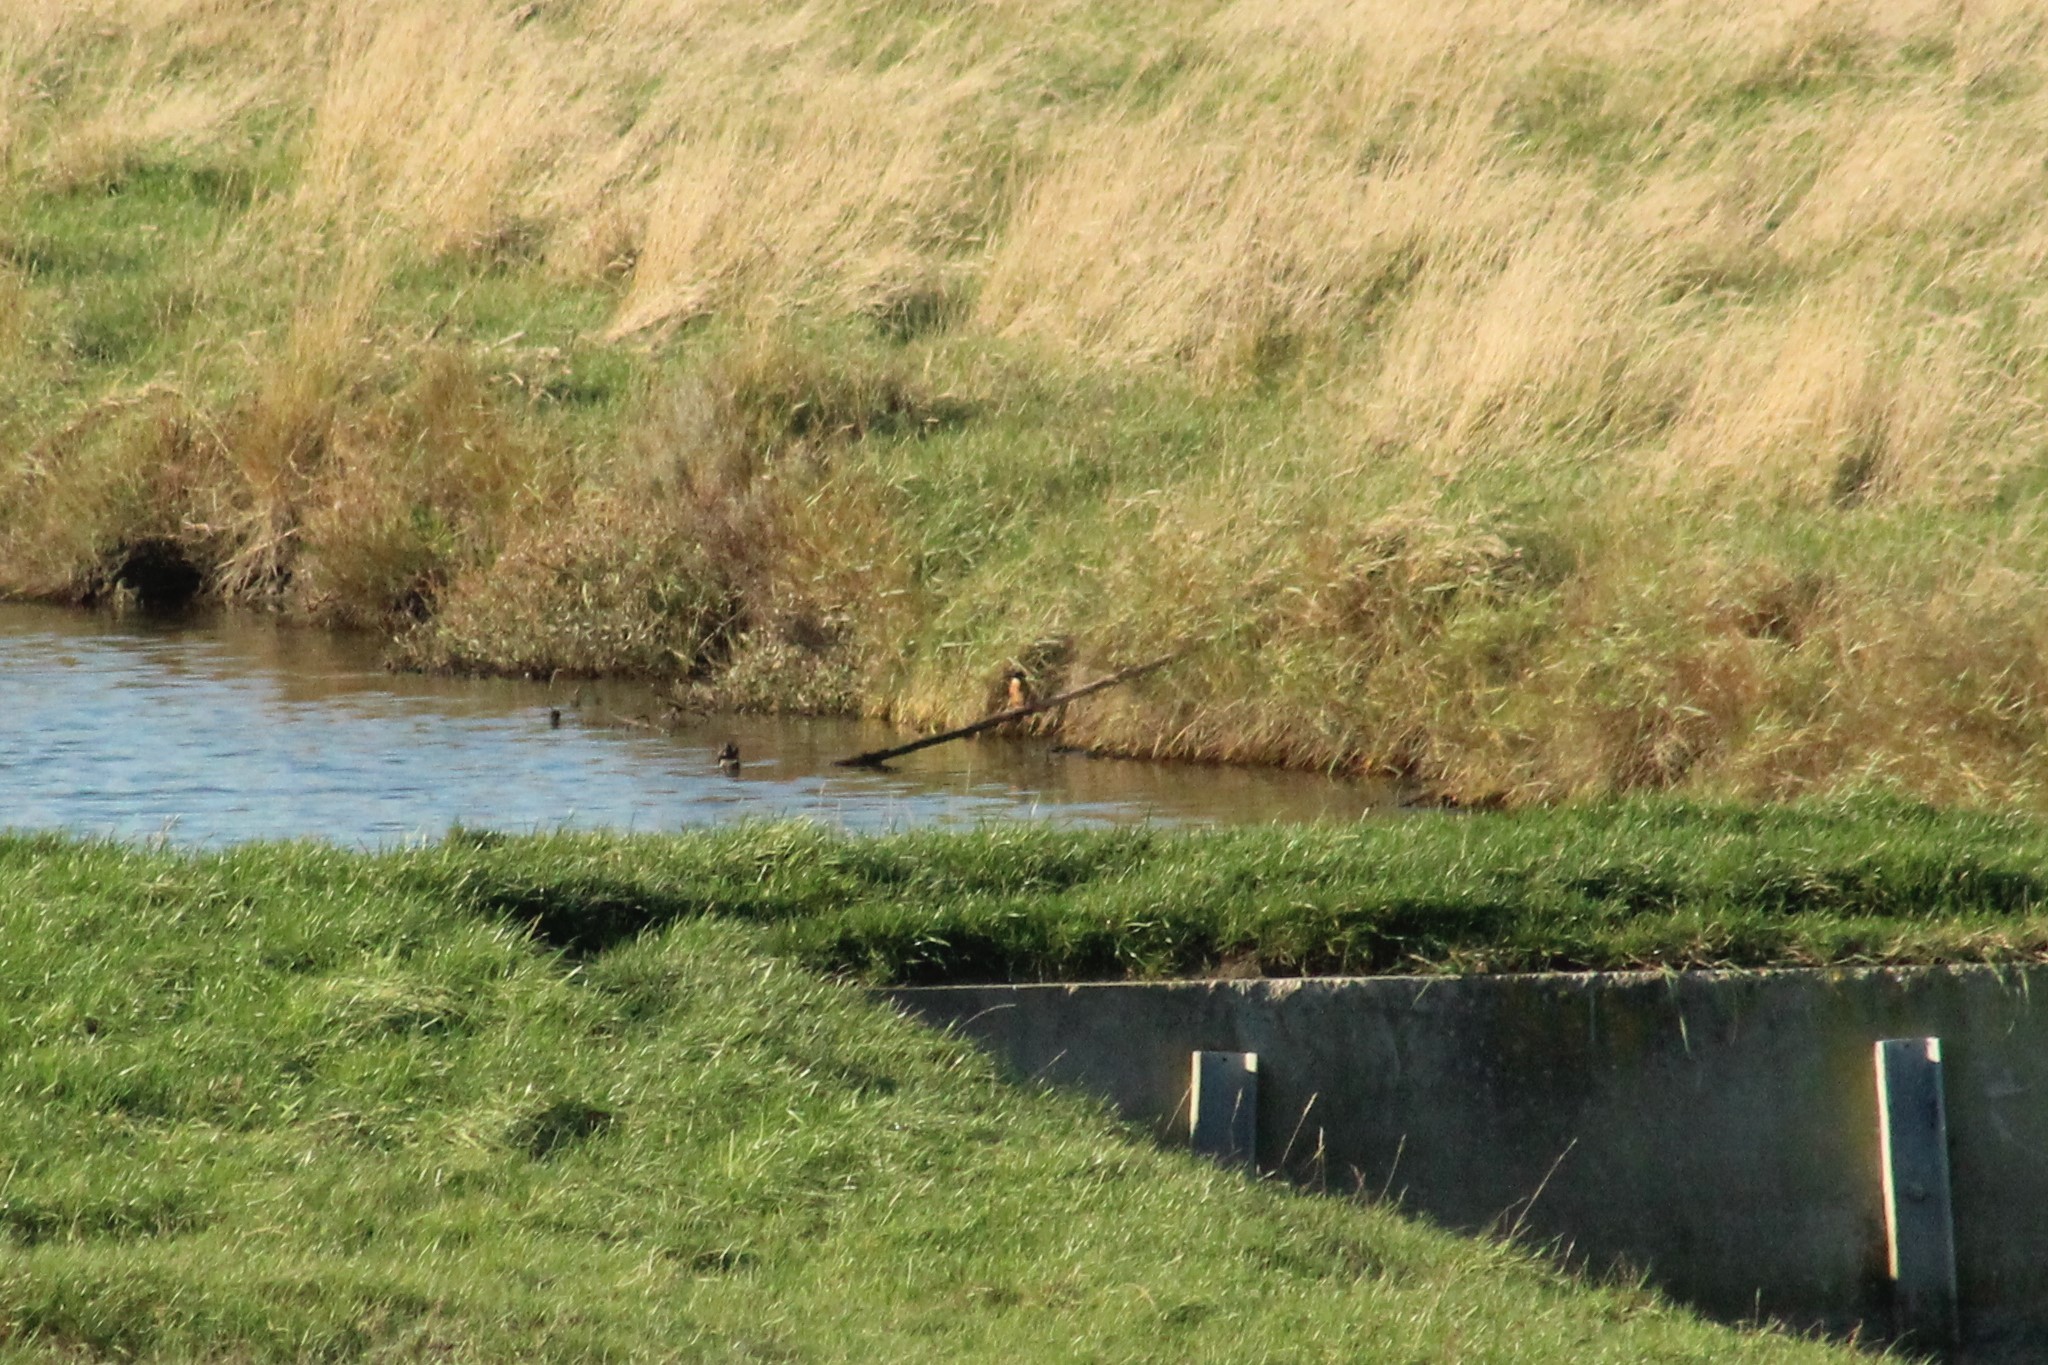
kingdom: Animalia
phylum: Chordata
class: Aves
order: Coraciiformes
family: Alcedinidae
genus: Alcedo
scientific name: Alcedo atthis
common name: Common kingfisher
